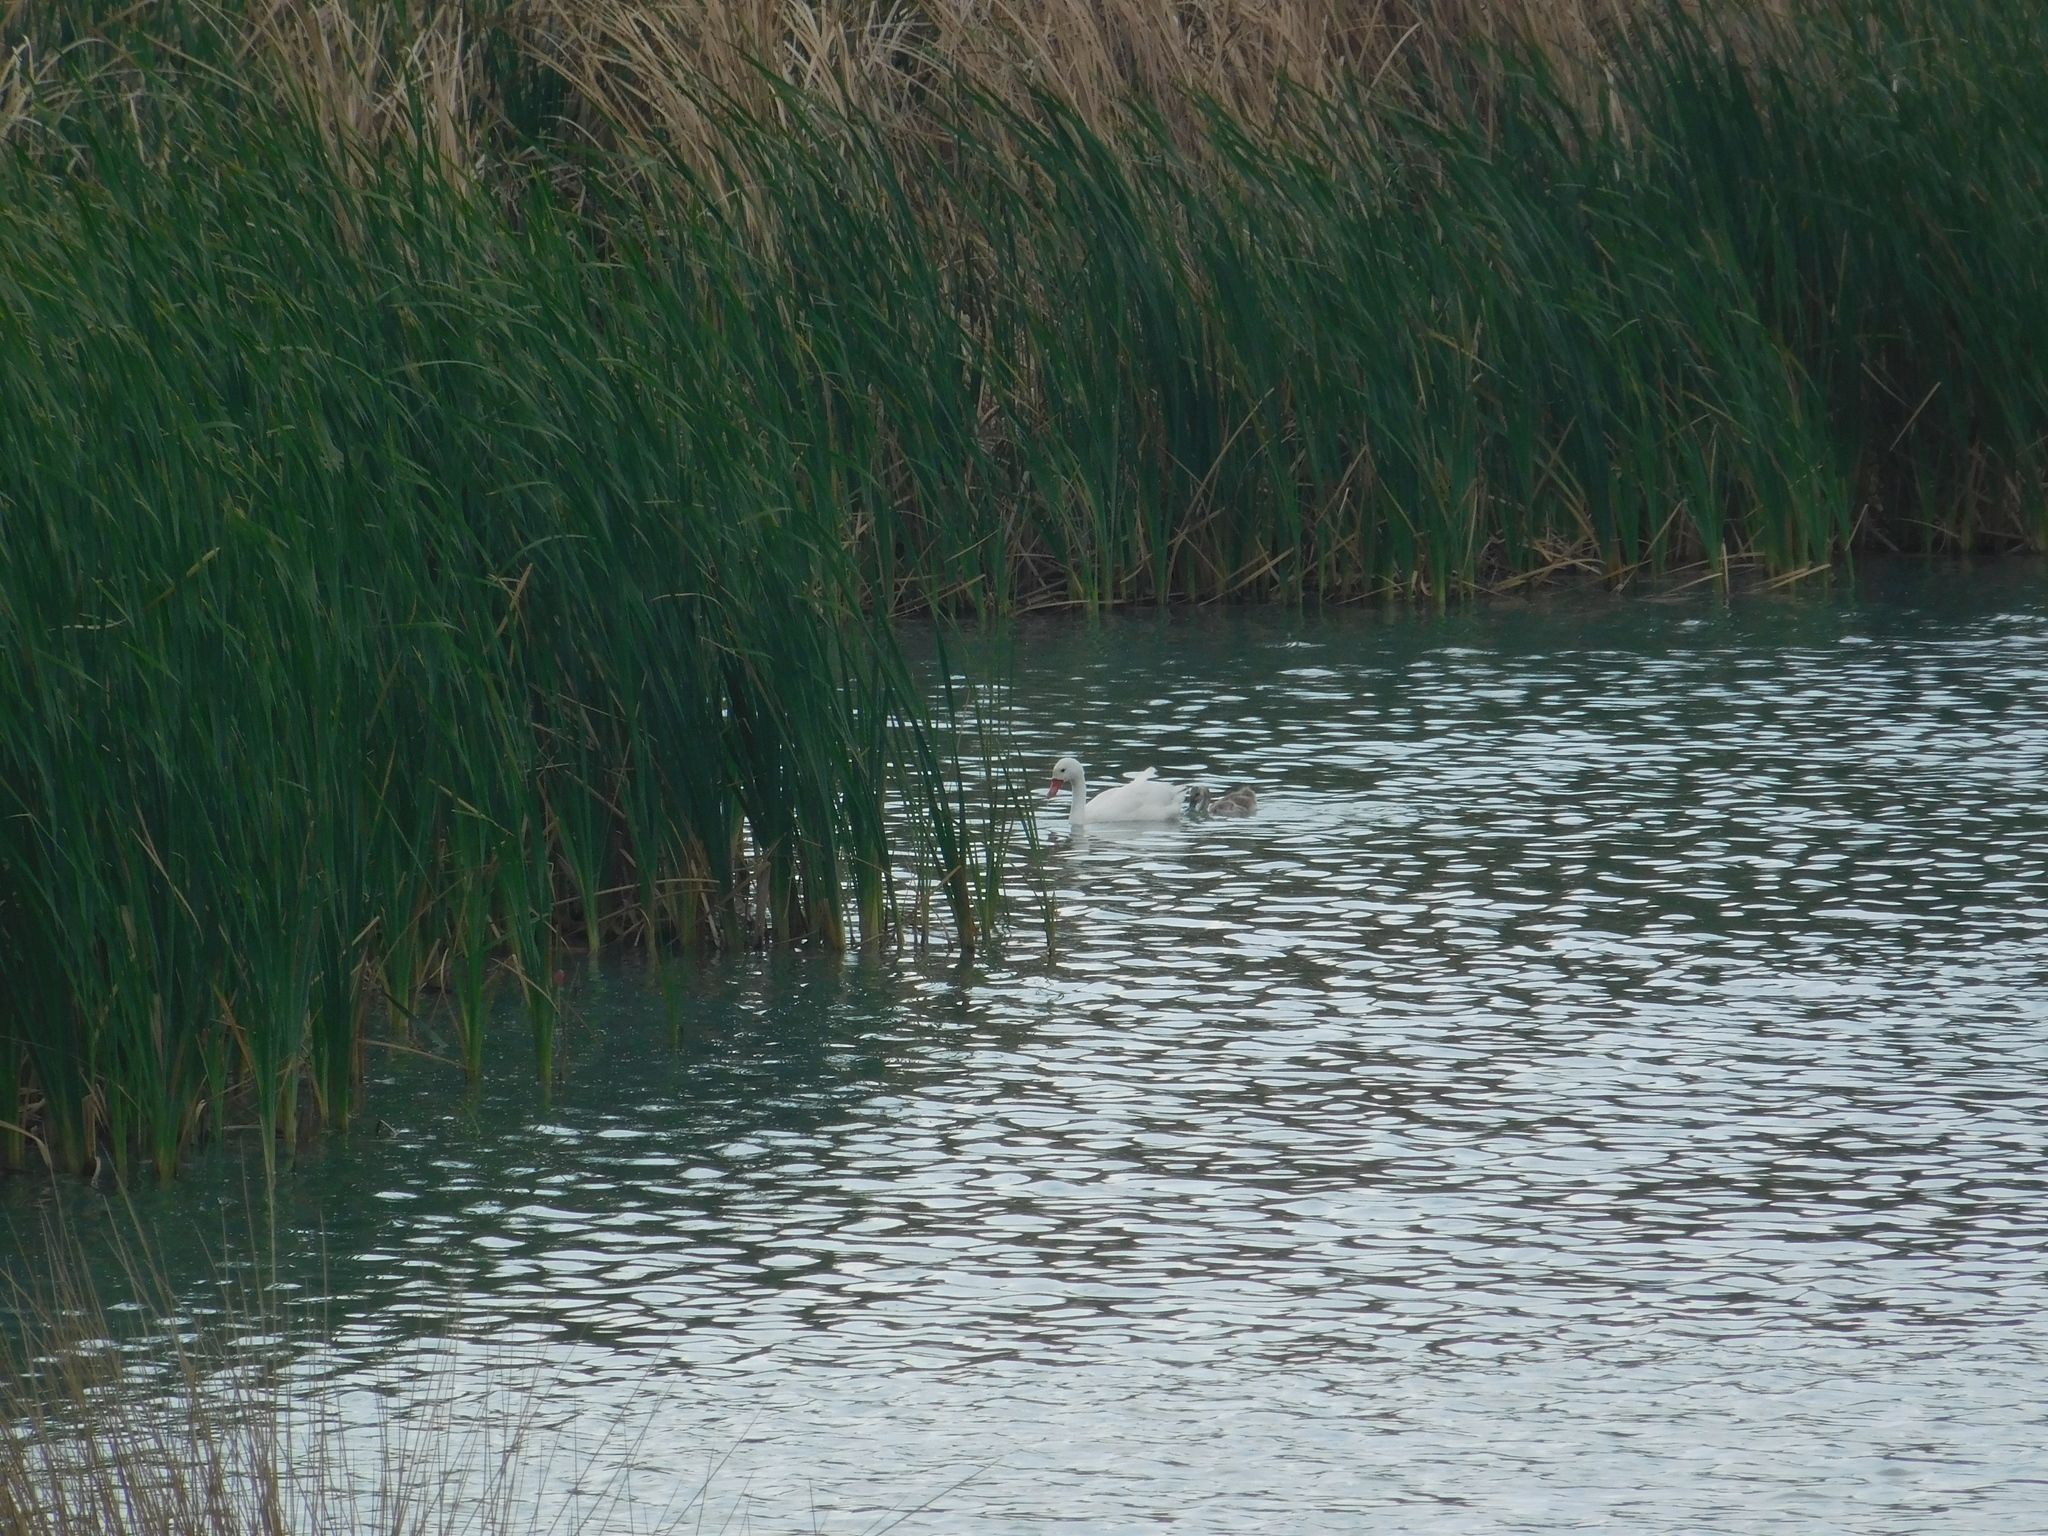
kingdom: Animalia
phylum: Chordata
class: Aves
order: Anseriformes
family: Anatidae
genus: Coscoroba
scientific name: Coscoroba coscoroba
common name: Coscoroba swan
